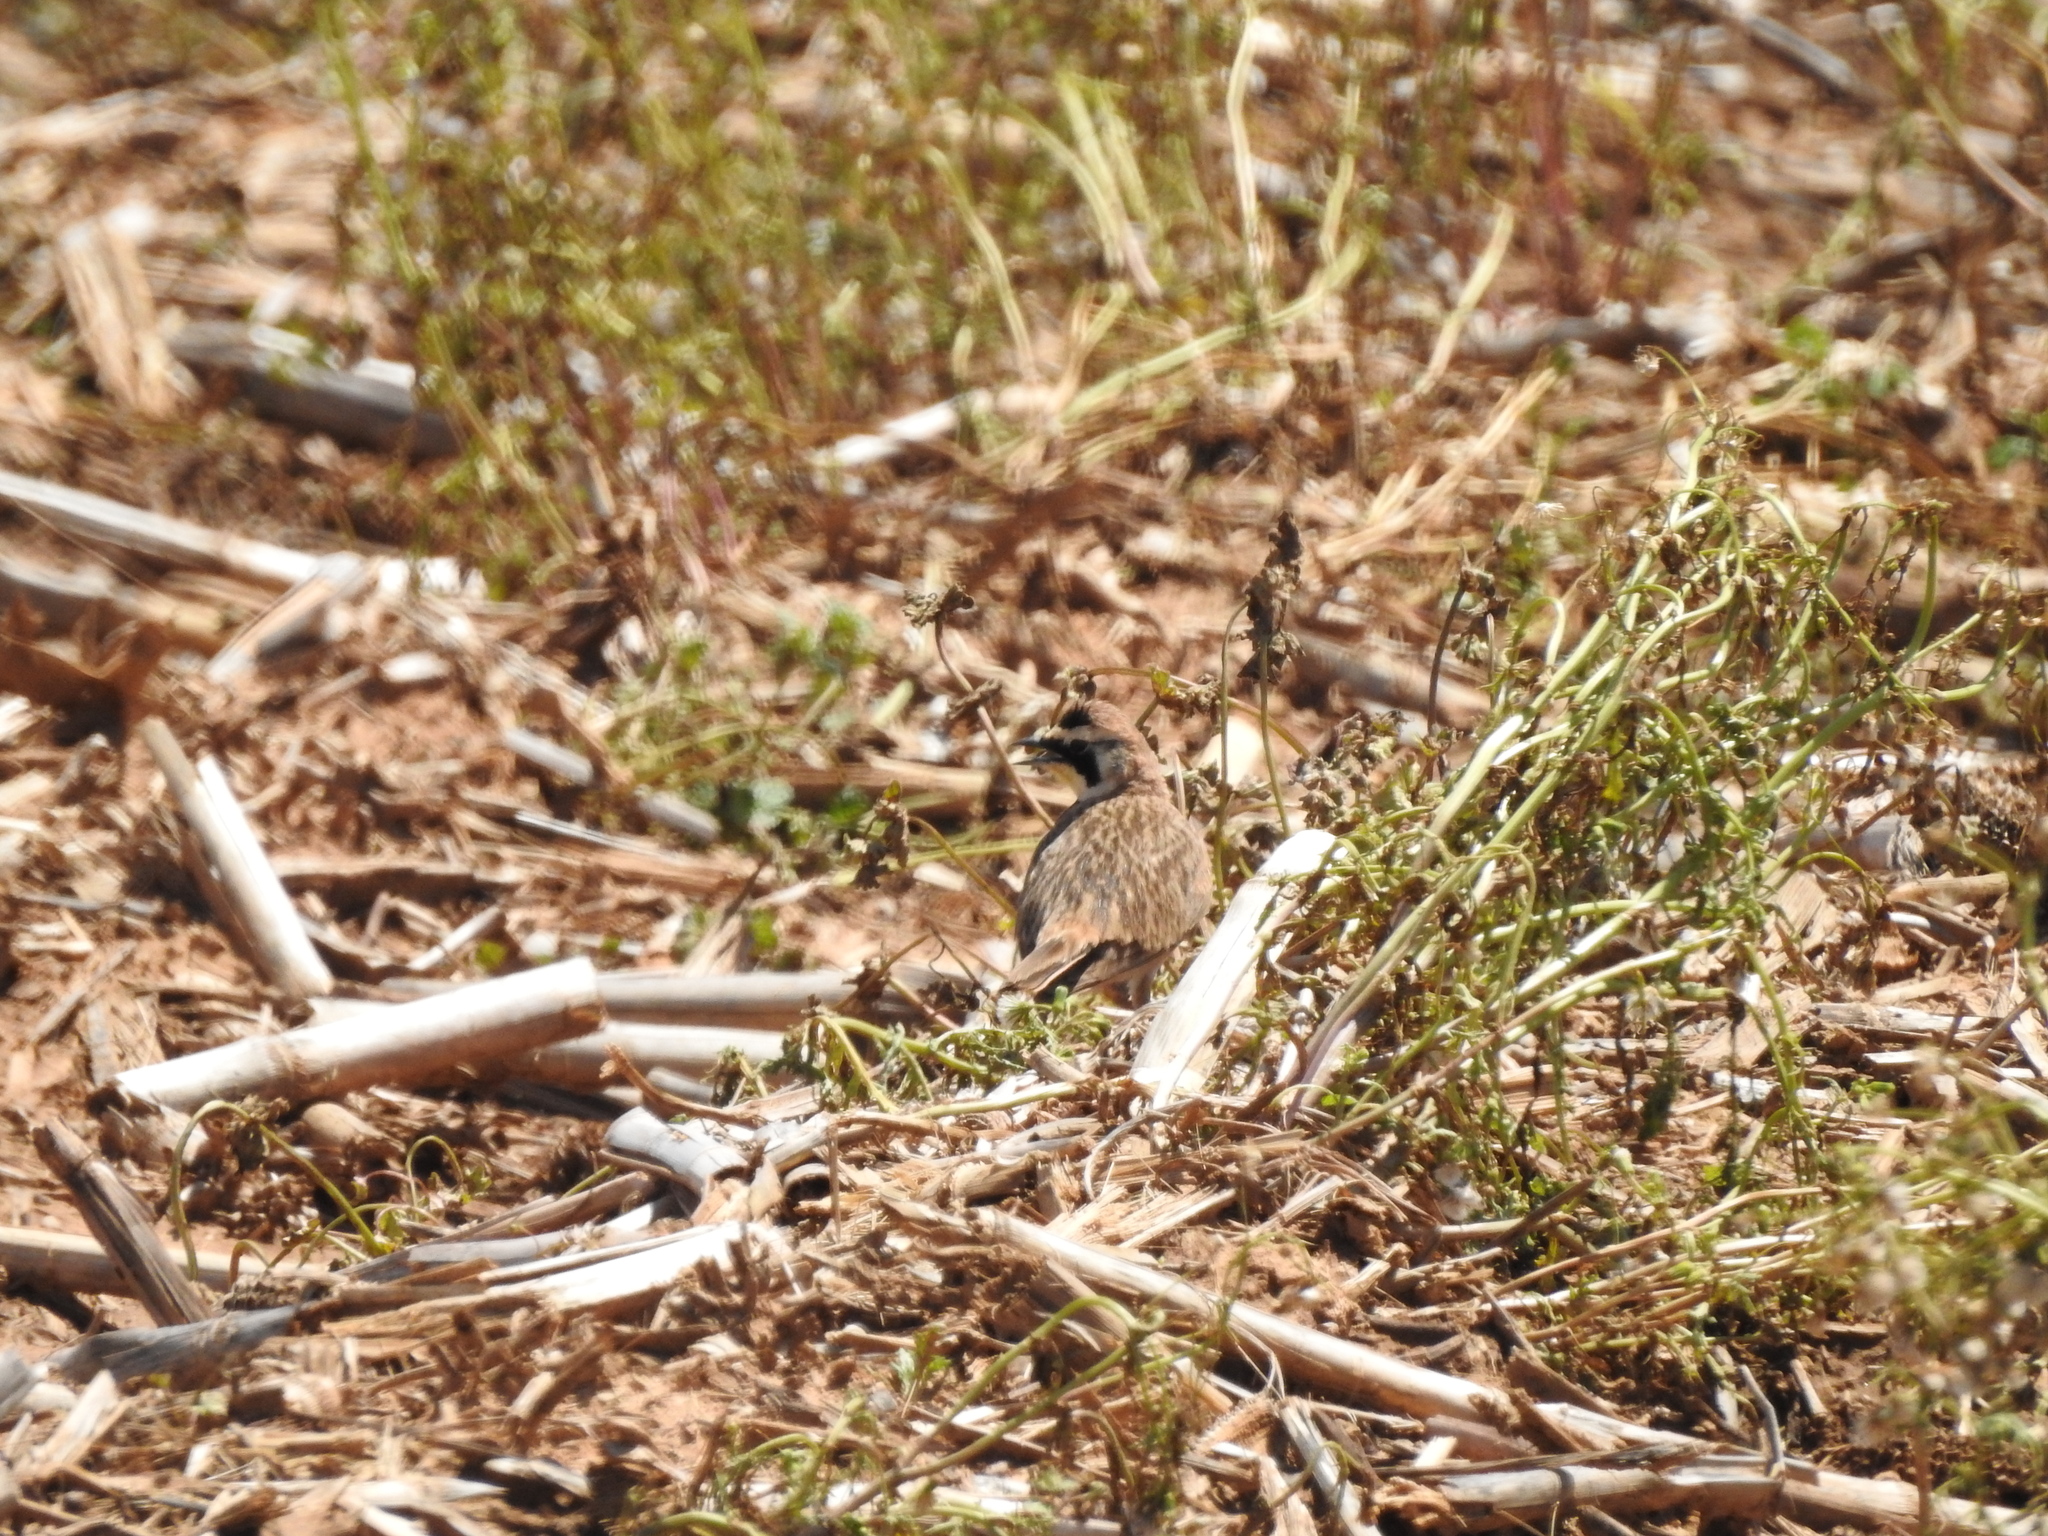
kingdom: Animalia
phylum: Chordata
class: Aves
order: Passeriformes
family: Alaudidae
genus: Eremophila
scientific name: Eremophila alpestris
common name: Horned lark
